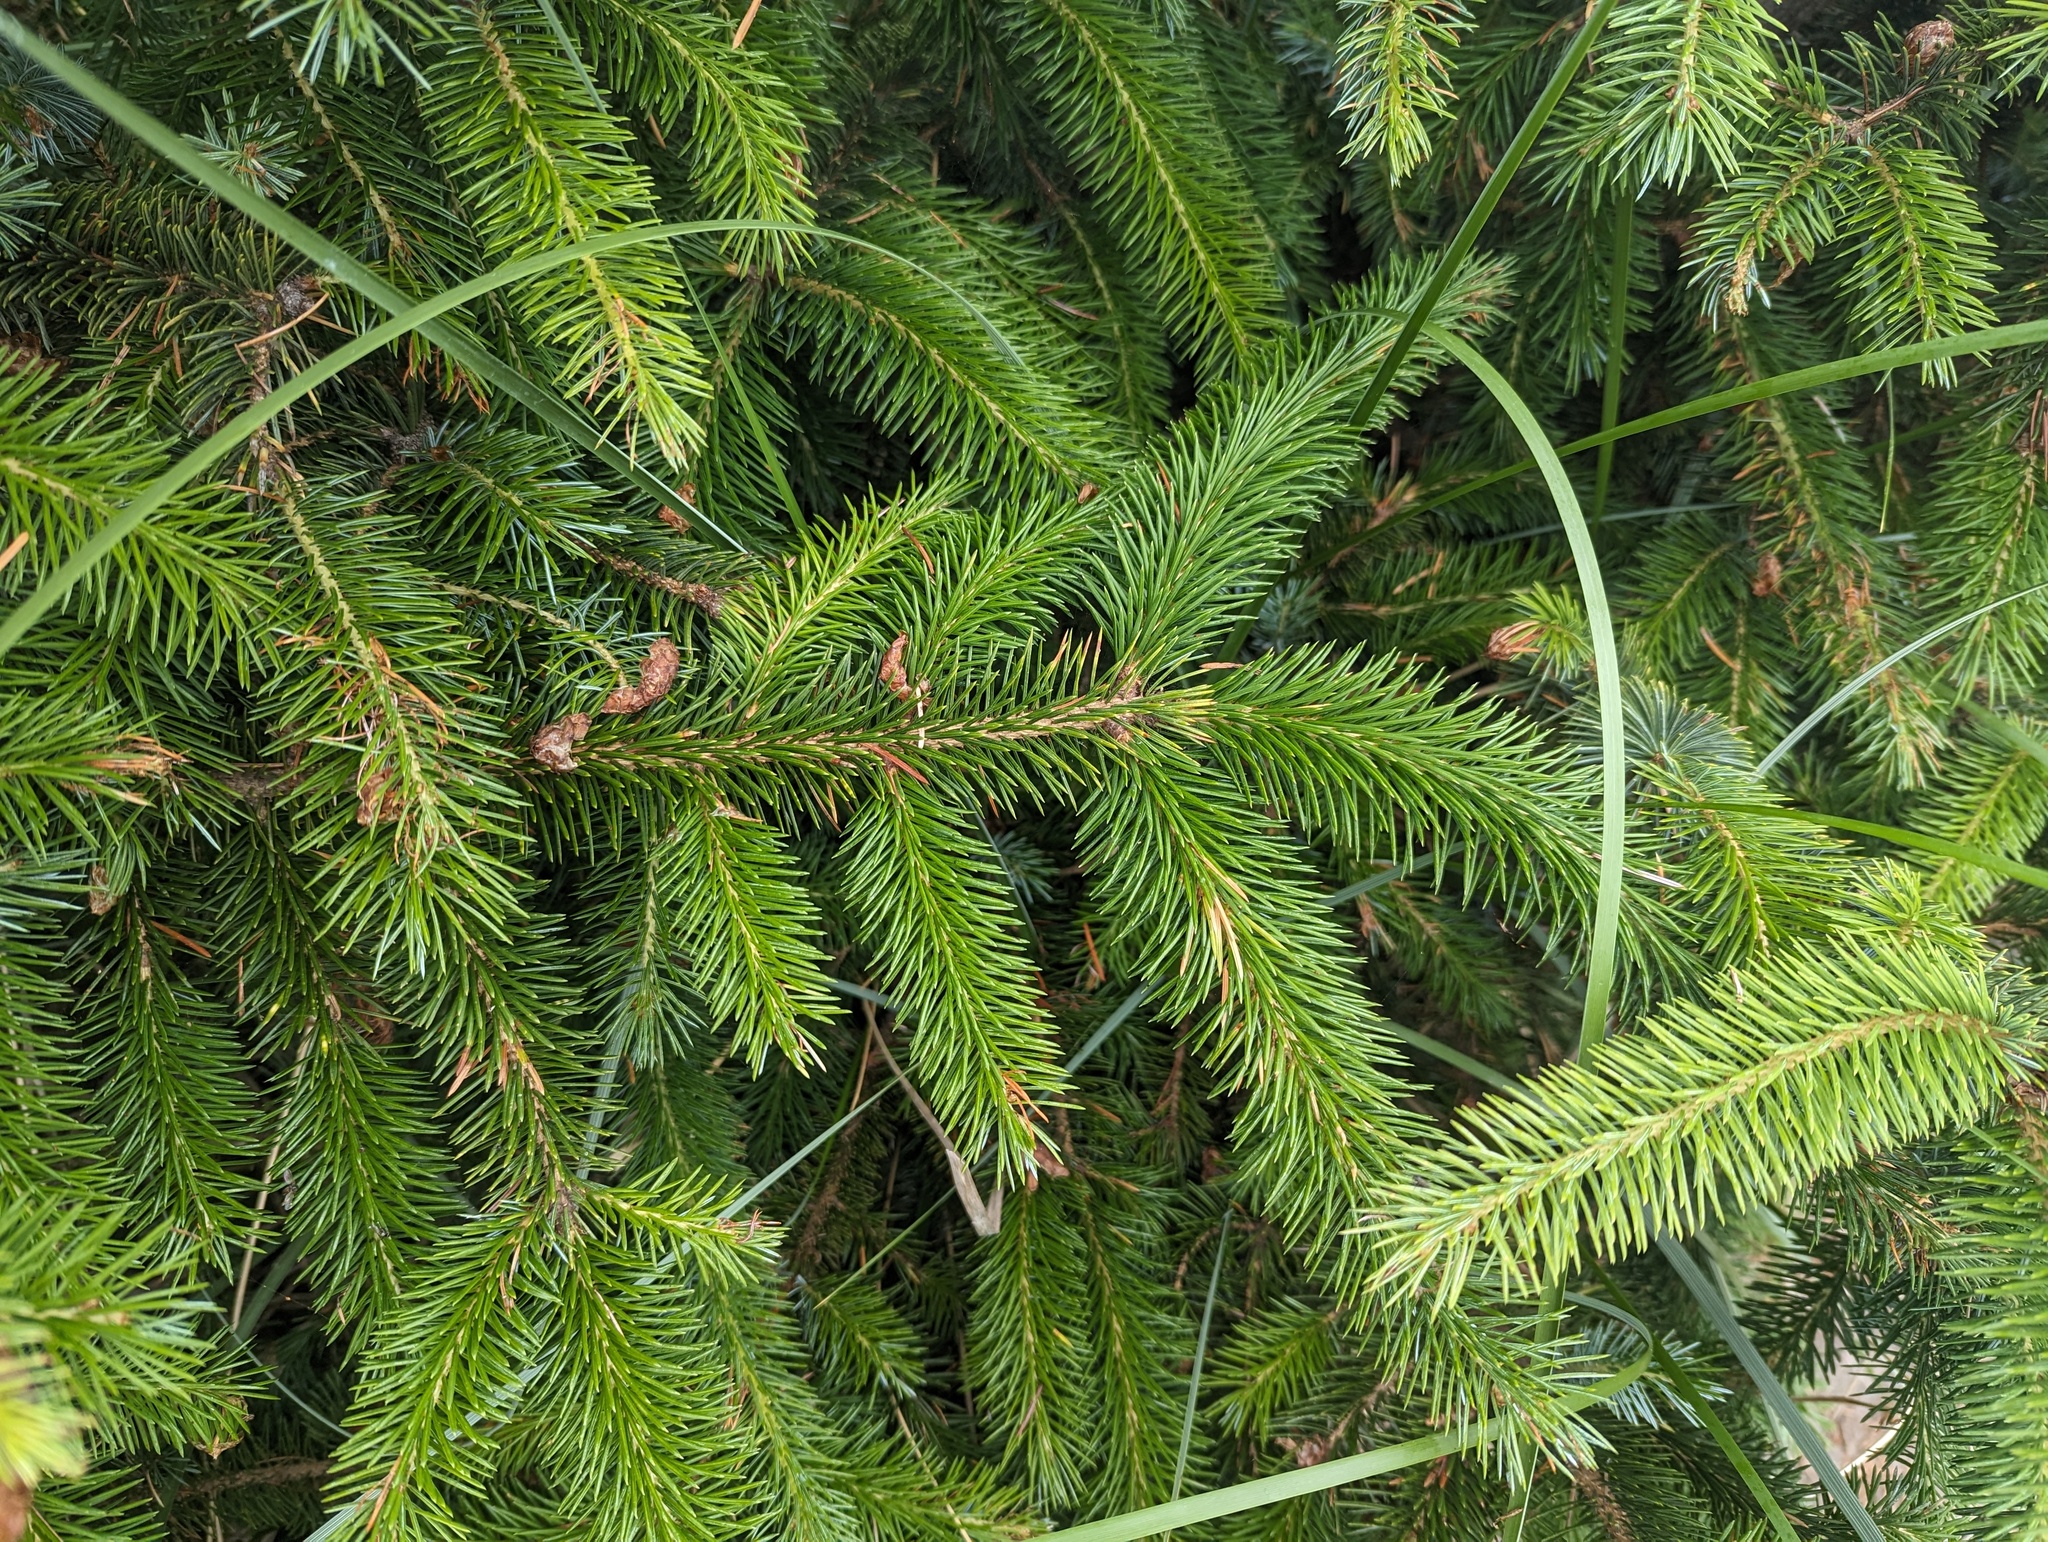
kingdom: Plantae
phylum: Tracheophyta
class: Pinopsida
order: Pinales
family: Pinaceae
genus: Picea
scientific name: Picea sitchensis
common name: Sitka spruce
